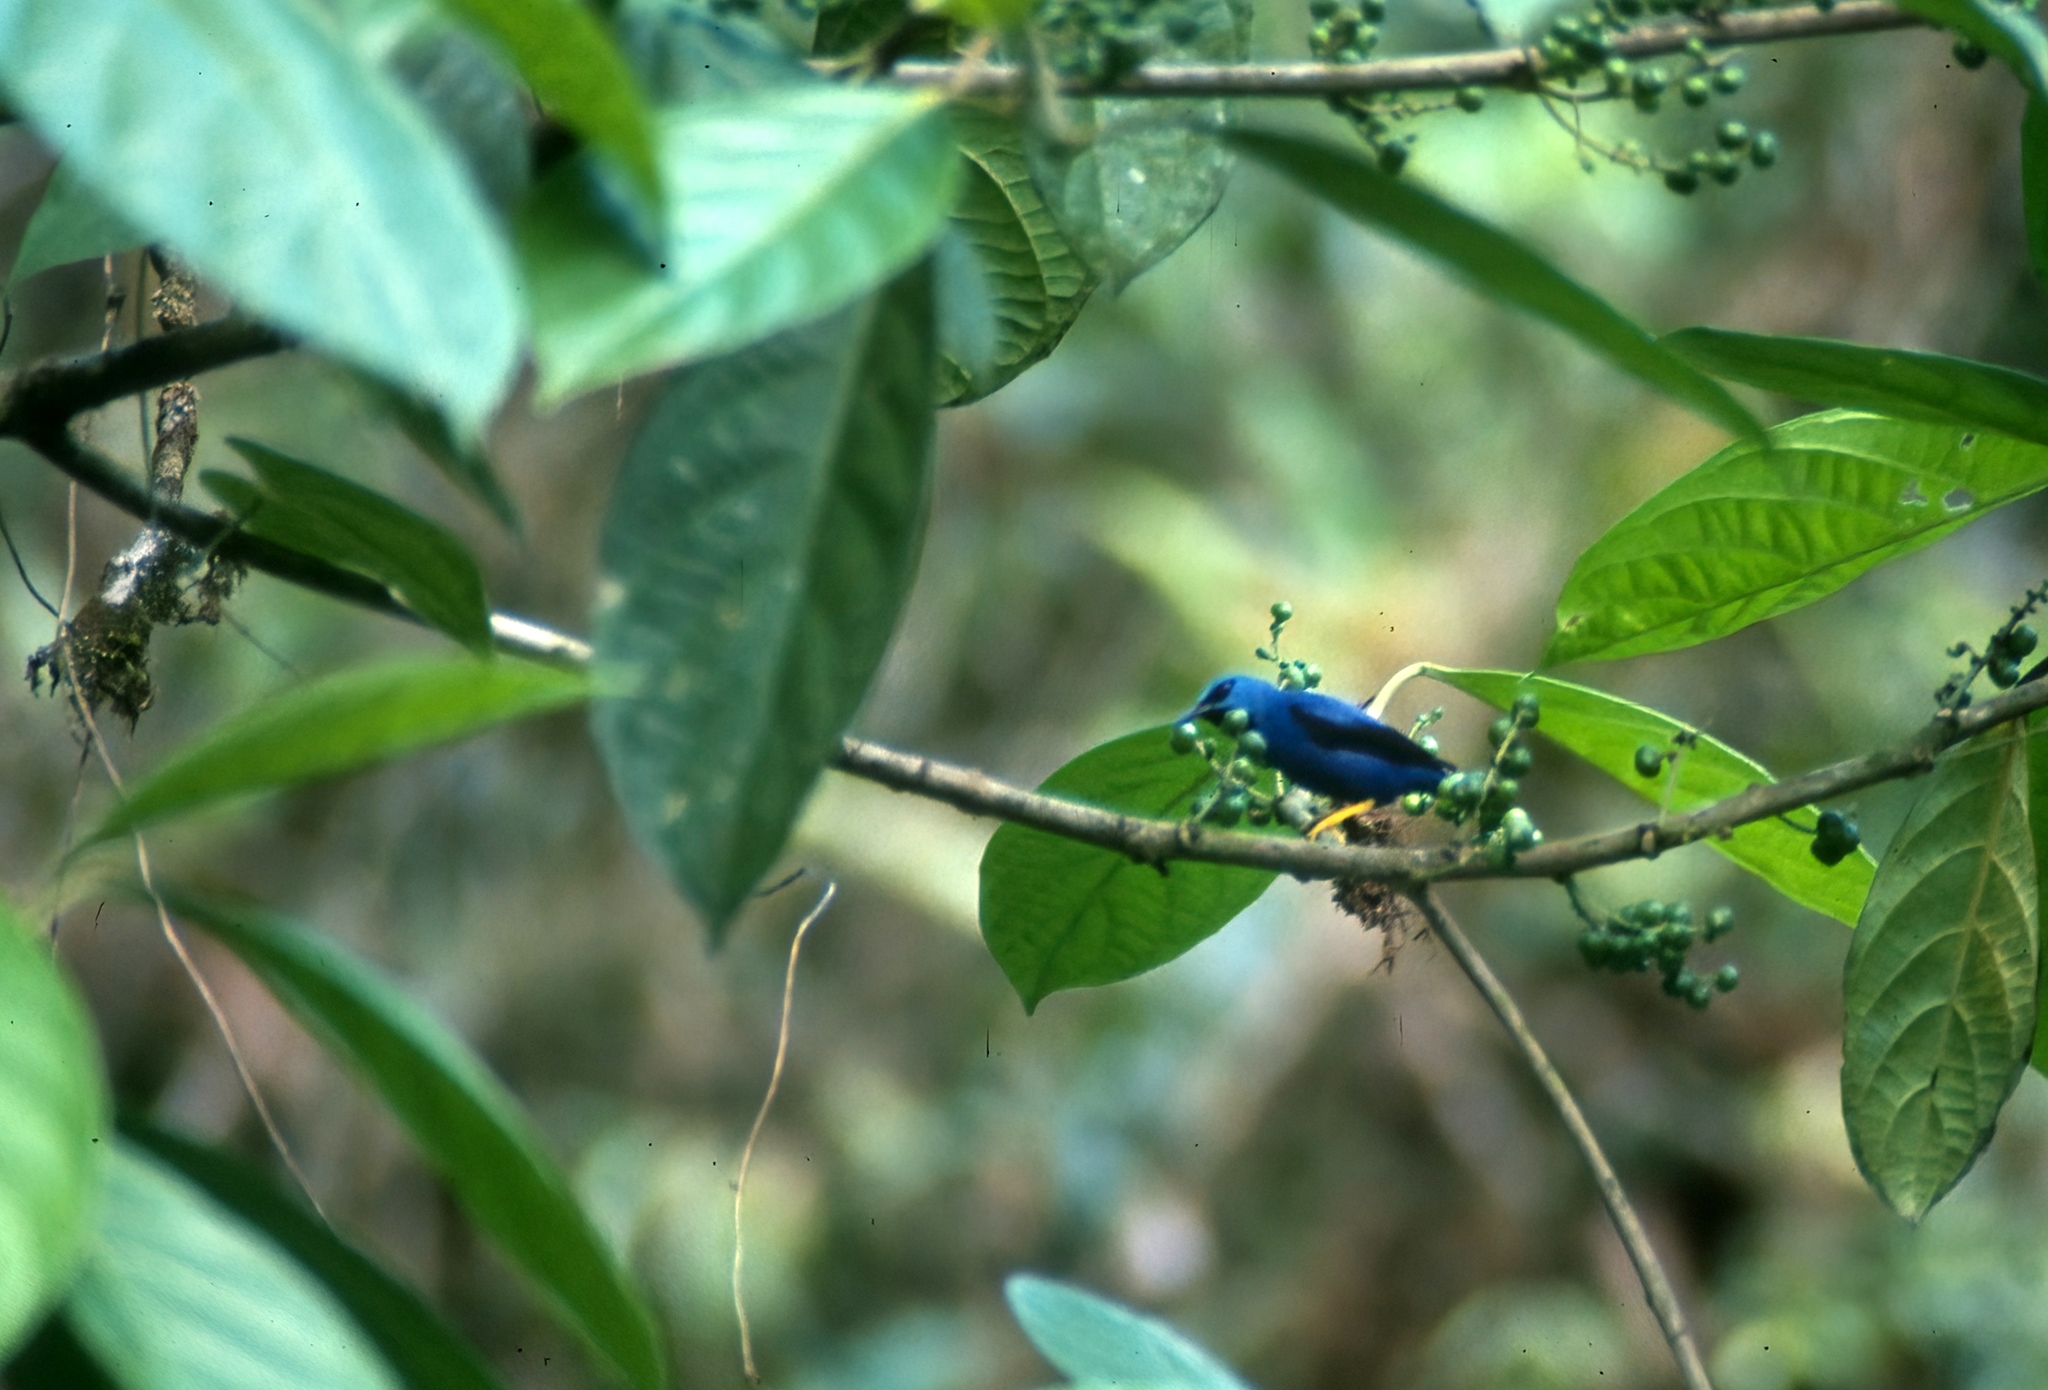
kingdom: Animalia
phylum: Chordata
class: Aves
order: Passeriformes
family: Thraupidae
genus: Cyanerpes
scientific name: Cyanerpes lucidus
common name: Shining honeycreeper
